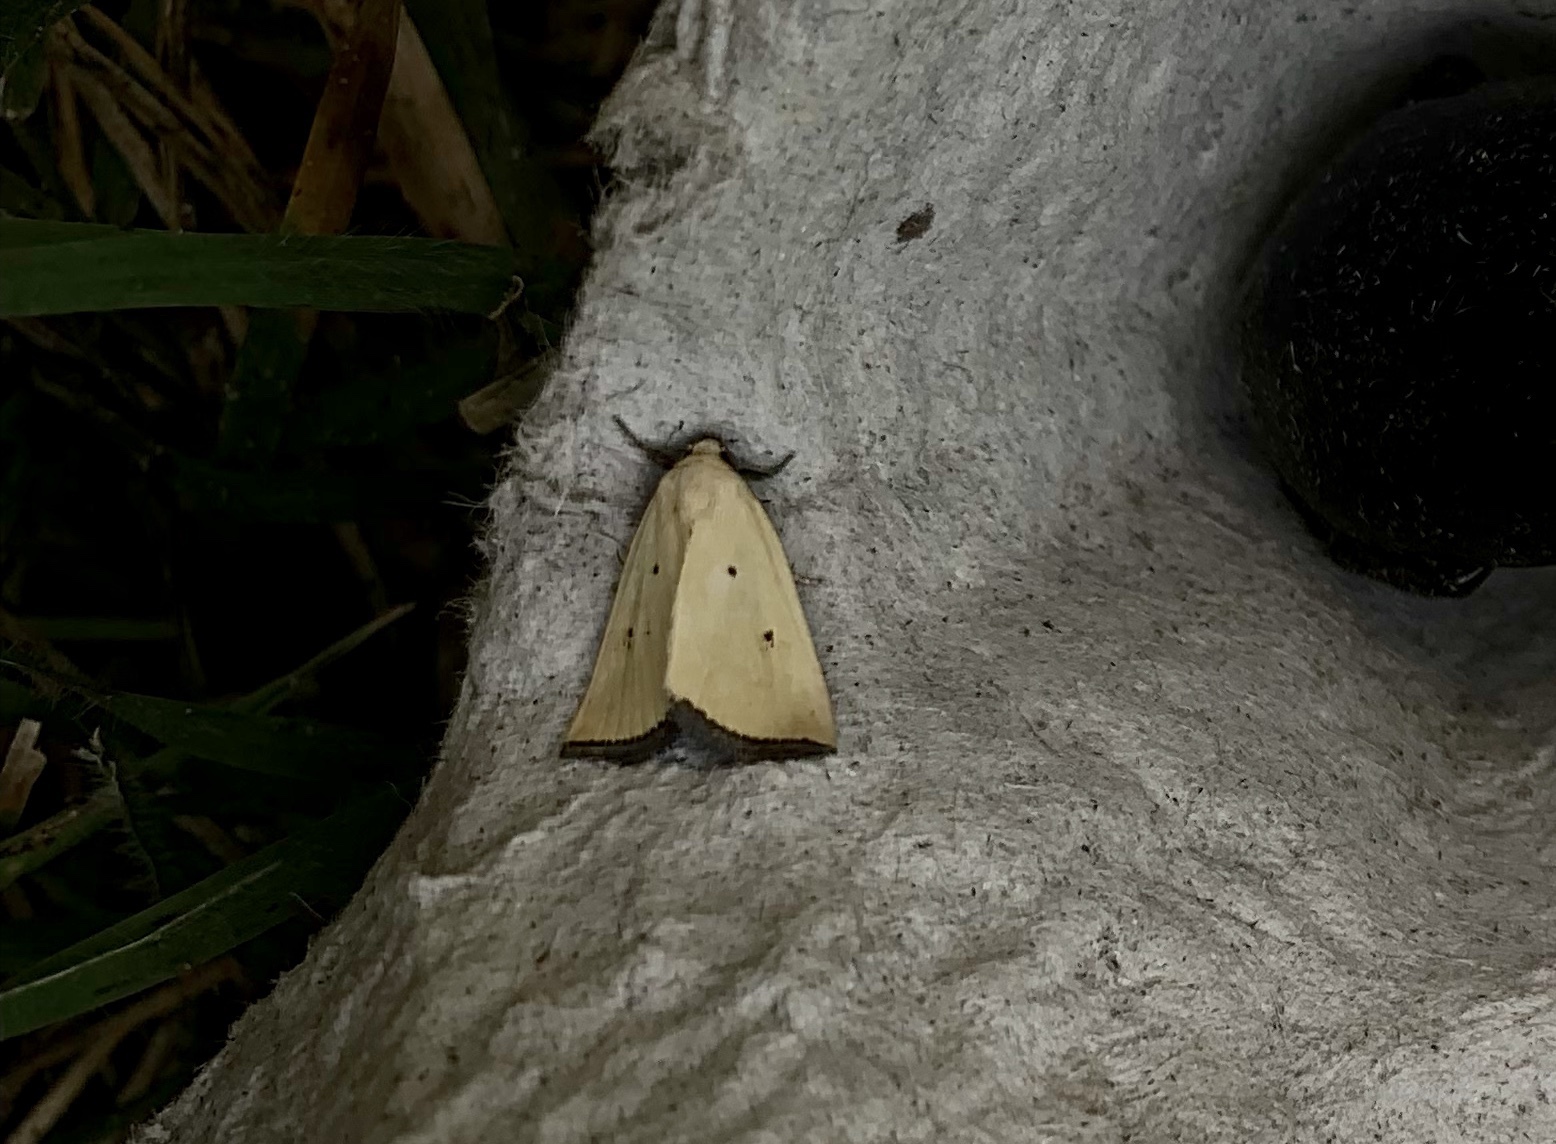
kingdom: Animalia
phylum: Arthropoda
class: Insecta
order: Lepidoptera
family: Noctuidae
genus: Marimatha
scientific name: Marimatha nigrofimbria
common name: Black-bordered lemon moth
